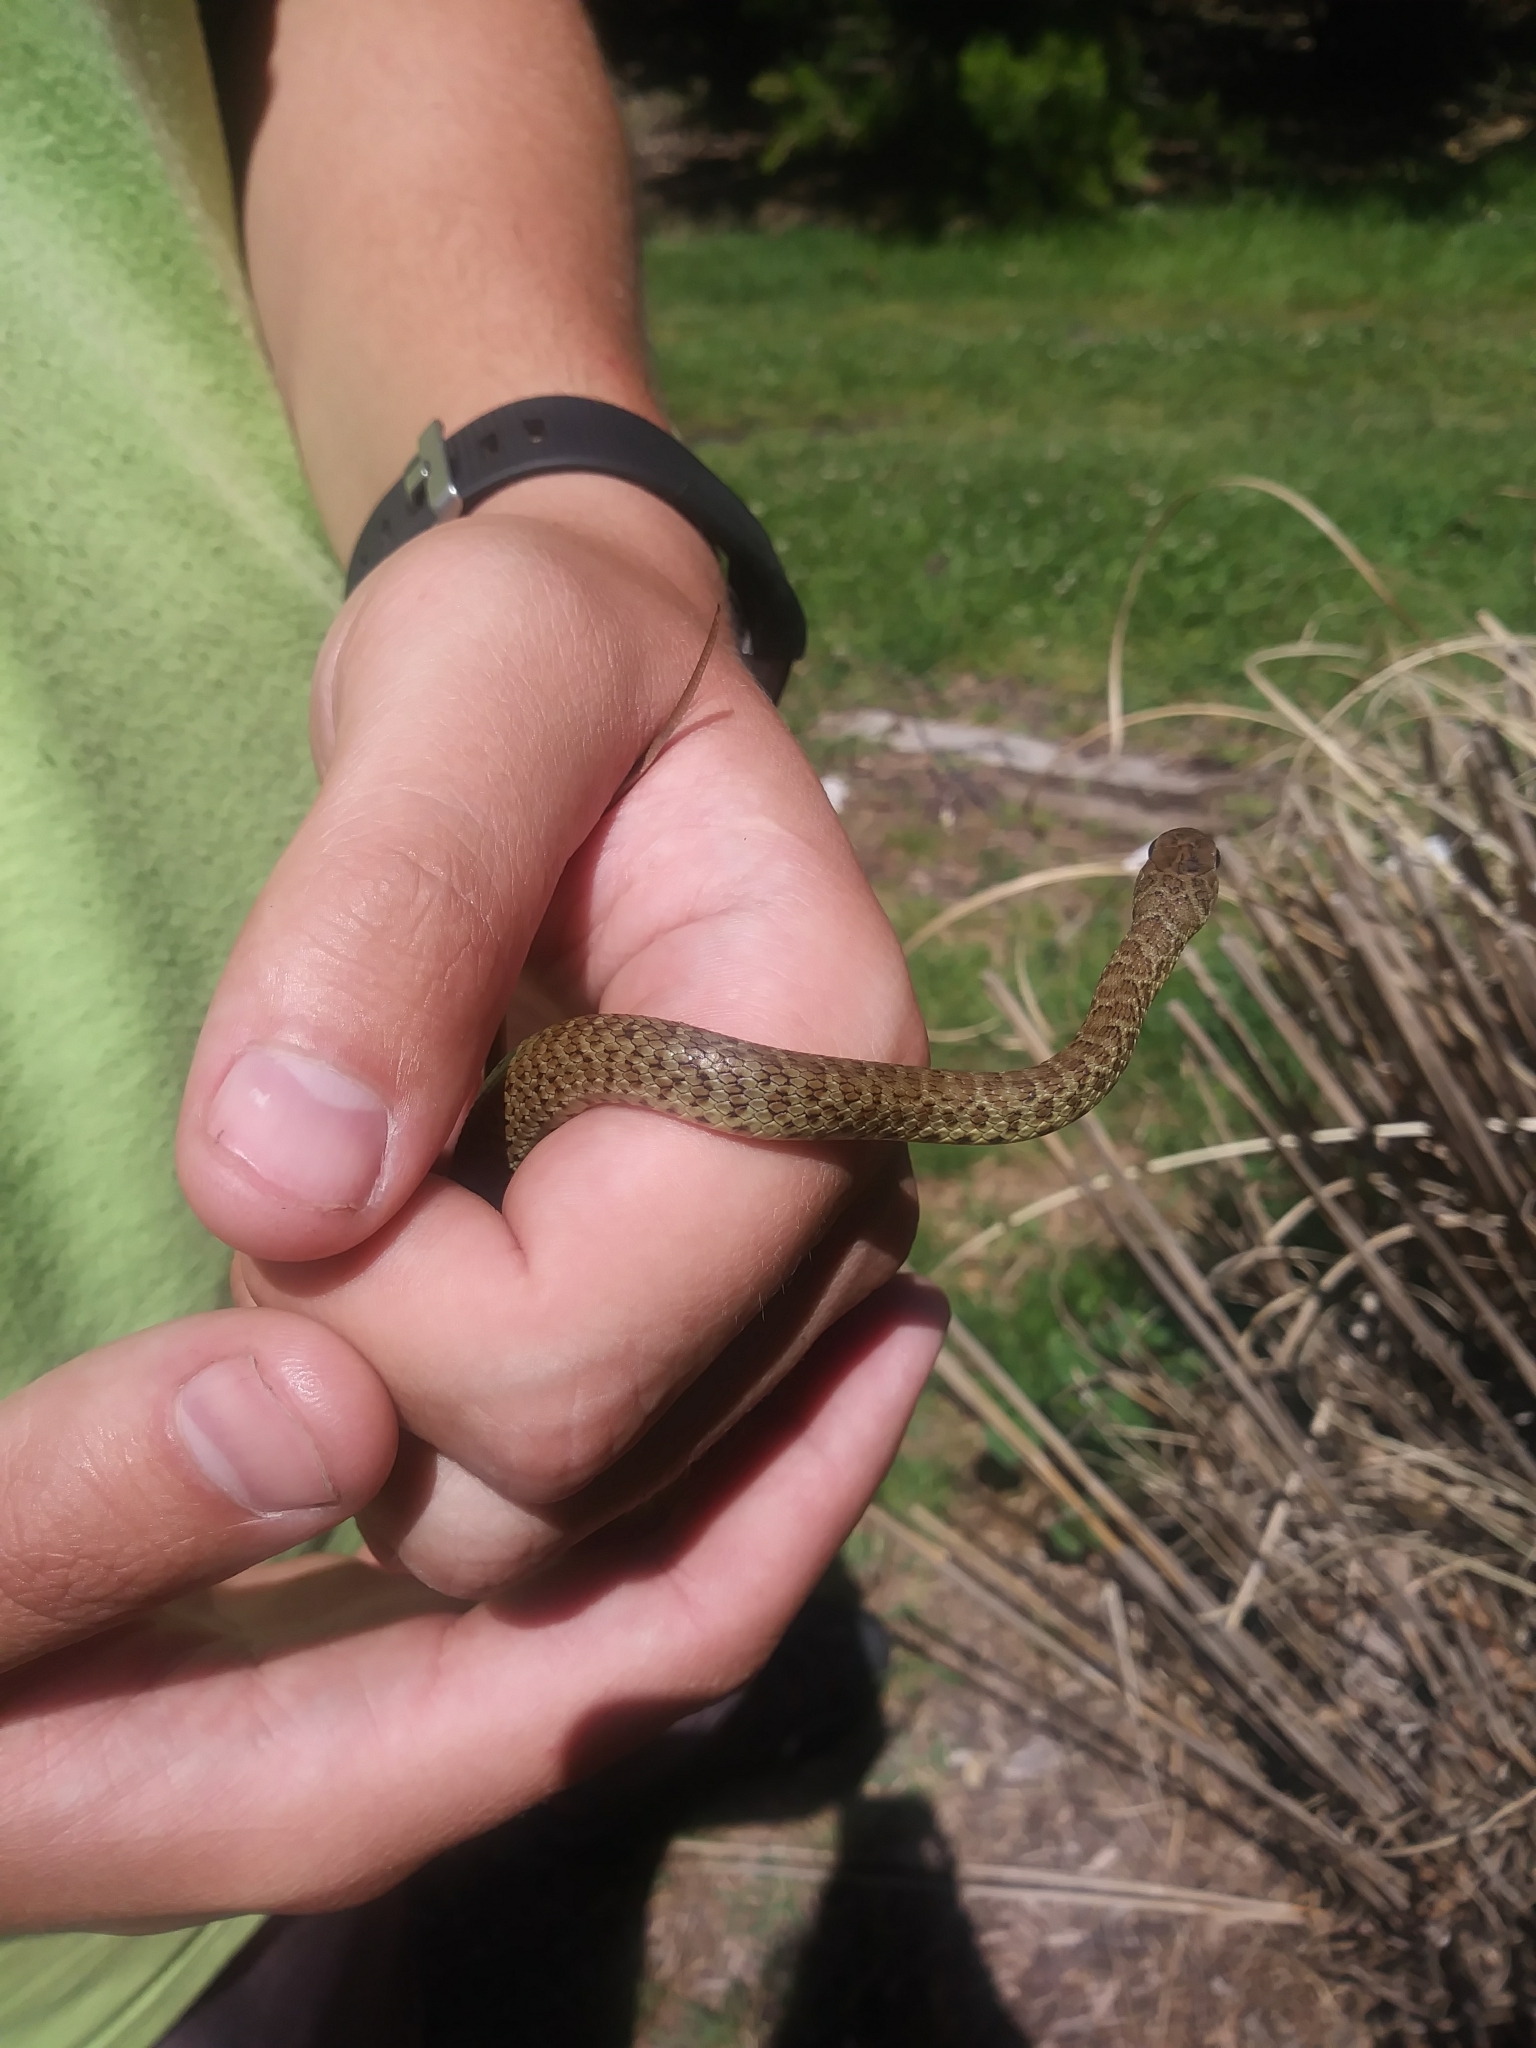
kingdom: Animalia
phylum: Chordata
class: Squamata
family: Colubridae
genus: Coluber
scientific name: Coluber constrictor
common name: Eastern racer
